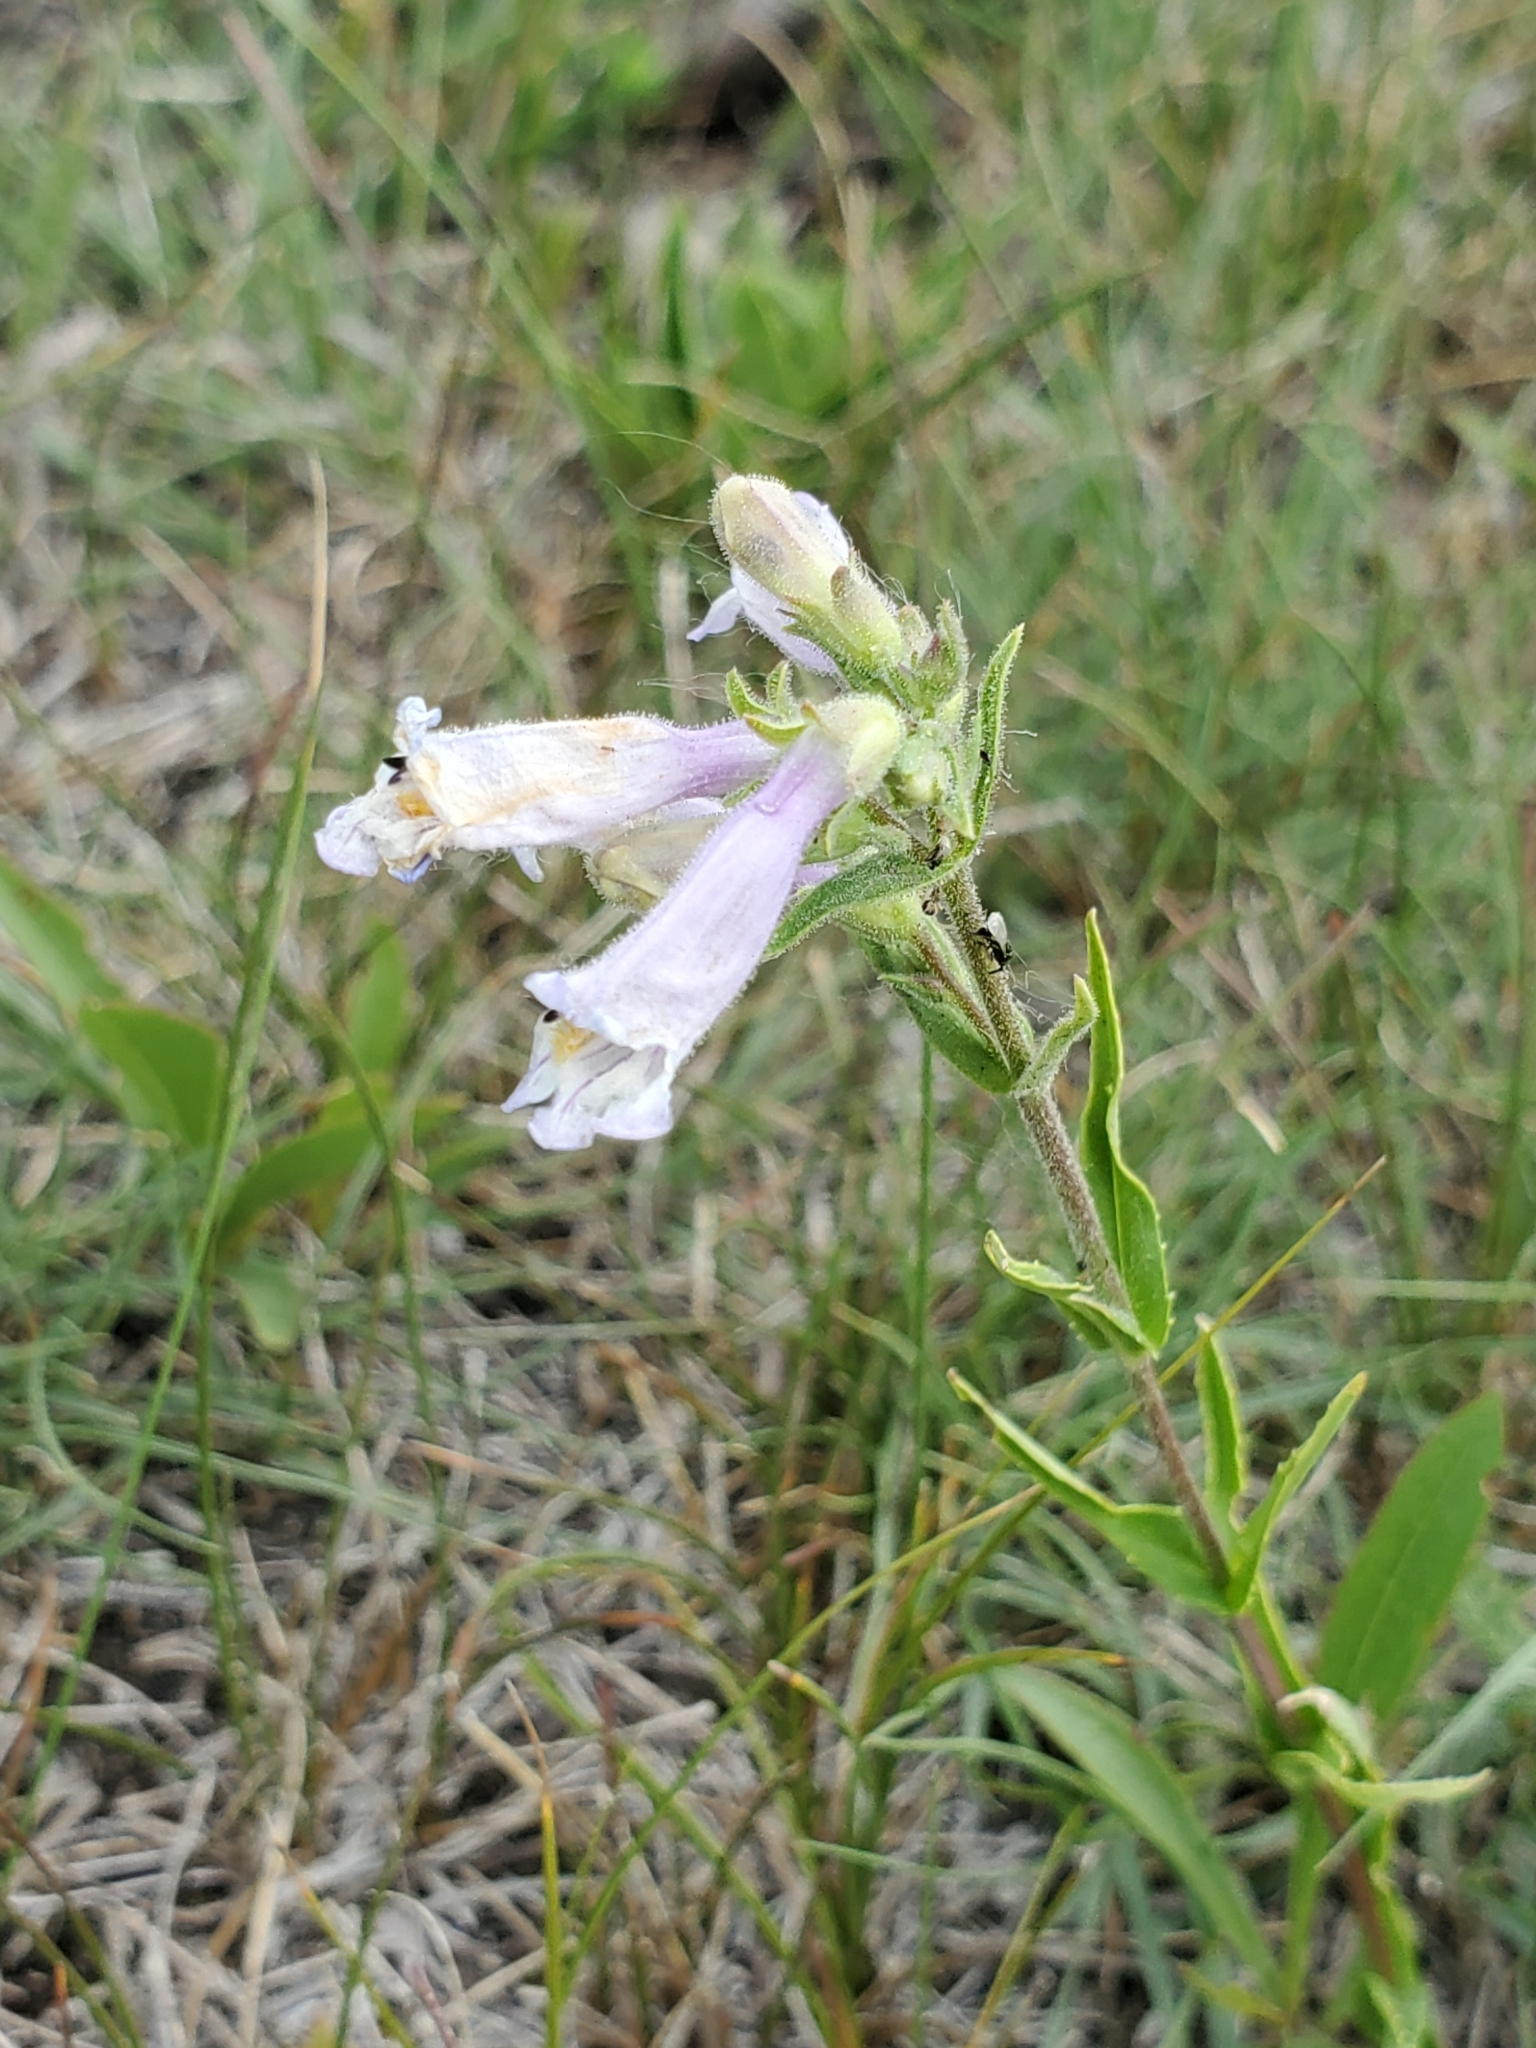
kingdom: Plantae
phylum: Tracheophyta
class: Magnoliopsida
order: Lamiales
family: Plantaginaceae
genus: Penstemon
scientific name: Penstemon gracilis
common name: Slender beardtongue
